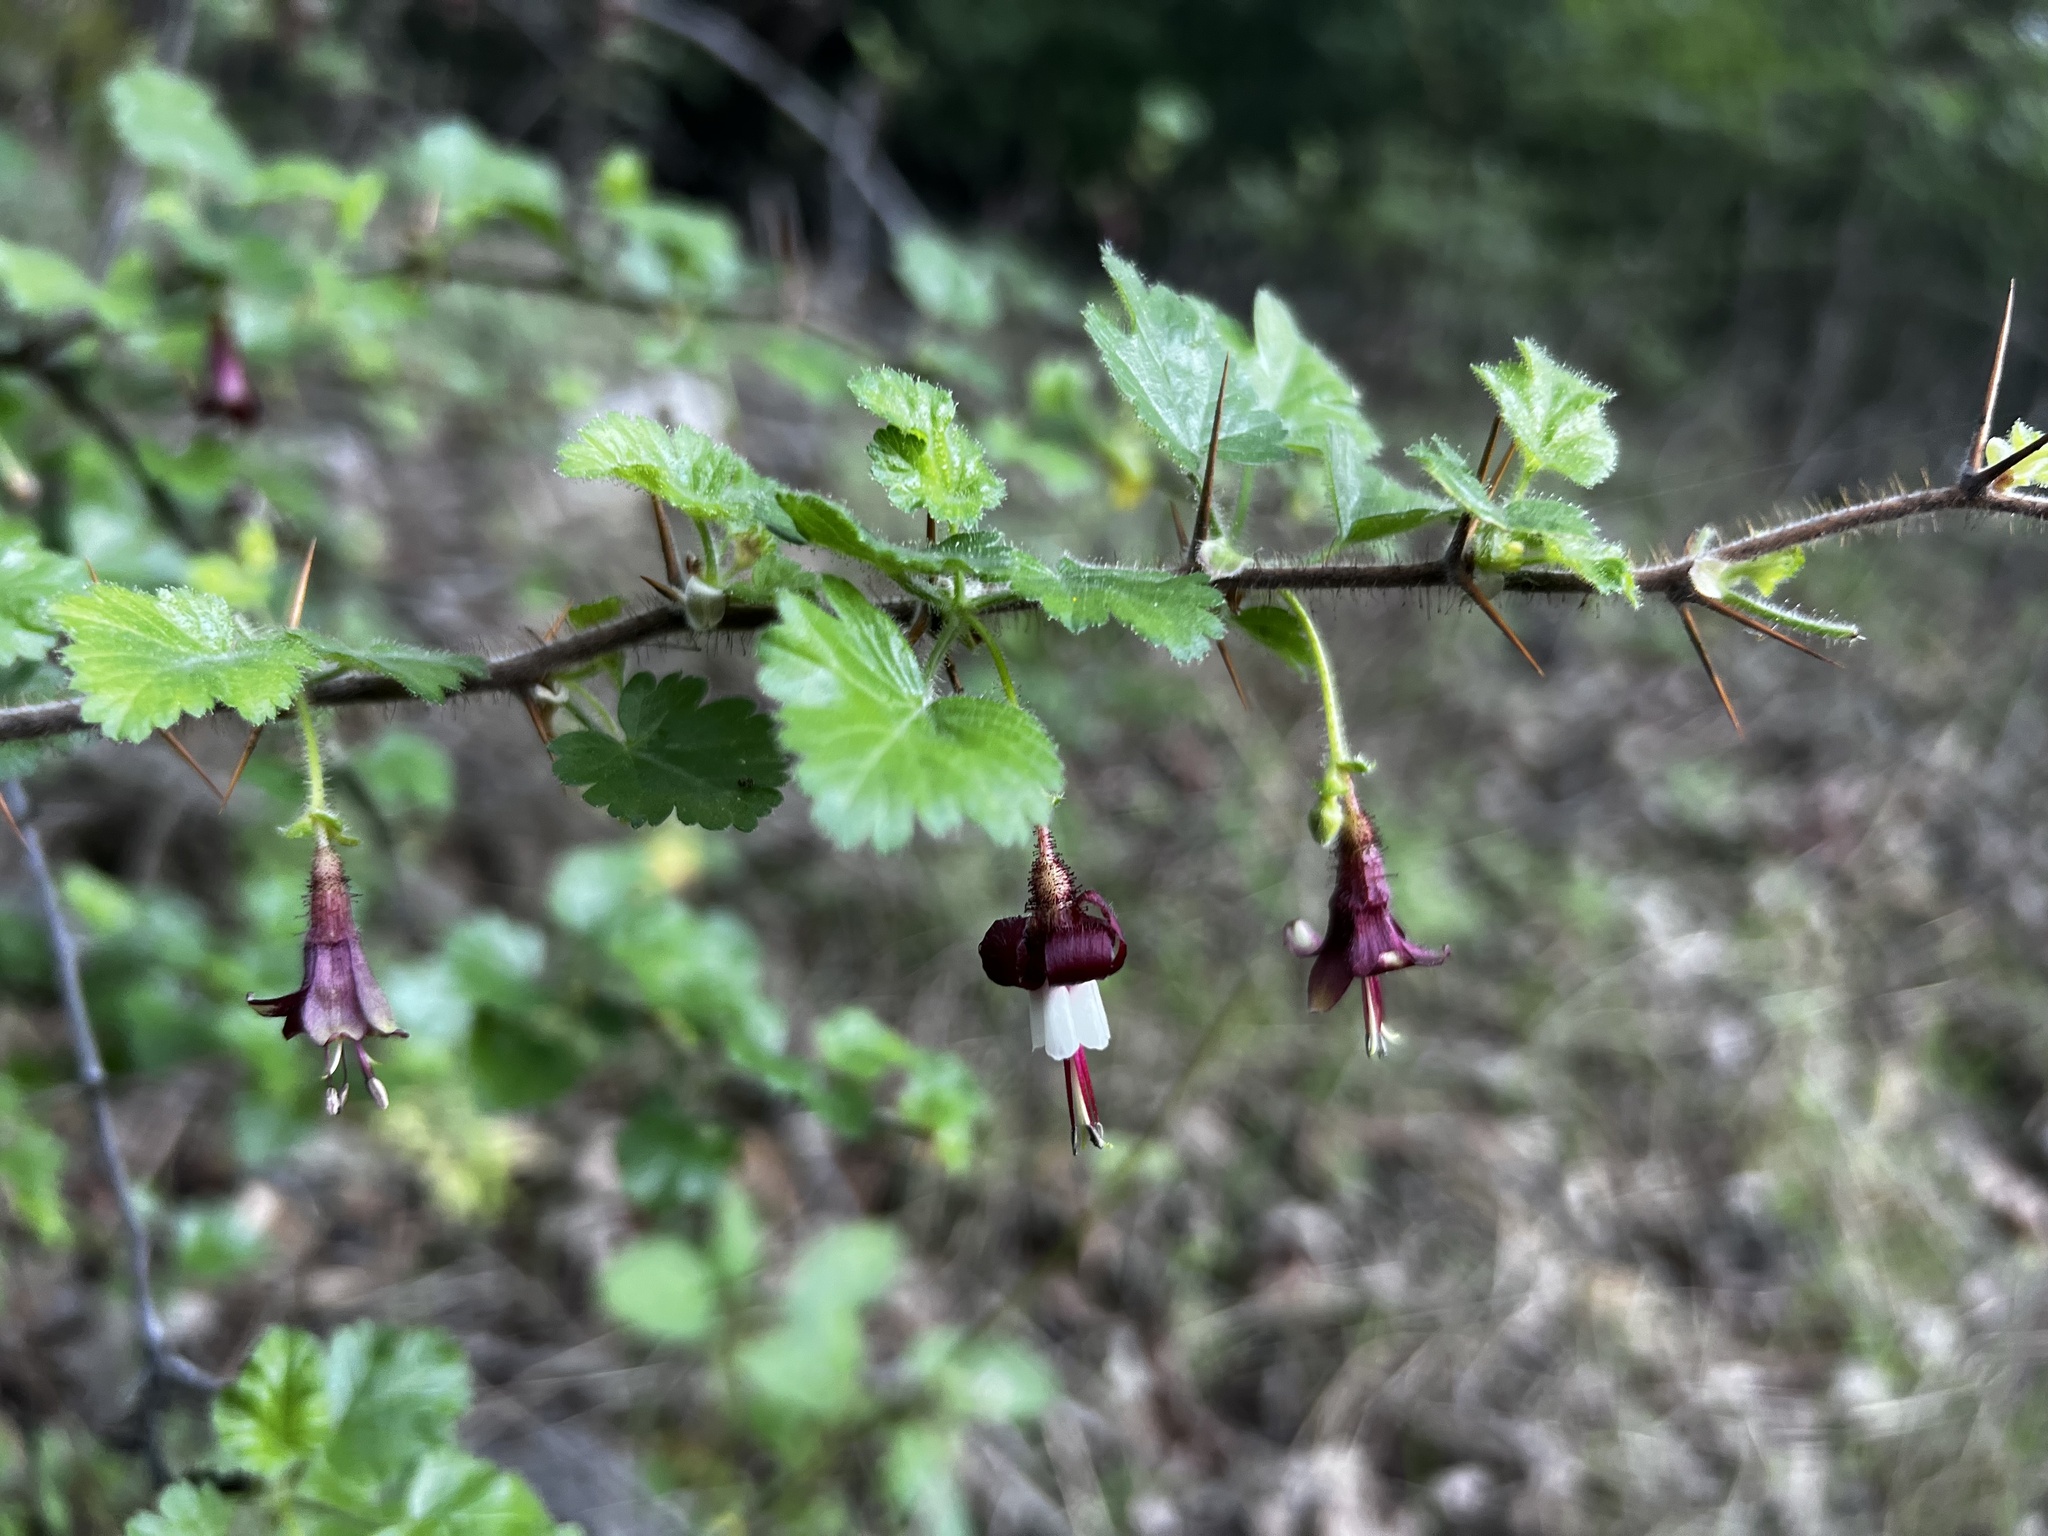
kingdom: Plantae
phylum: Tracheophyta
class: Magnoliopsida
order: Saxifragales
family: Grossulariaceae
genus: Ribes
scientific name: Ribes sericeum
